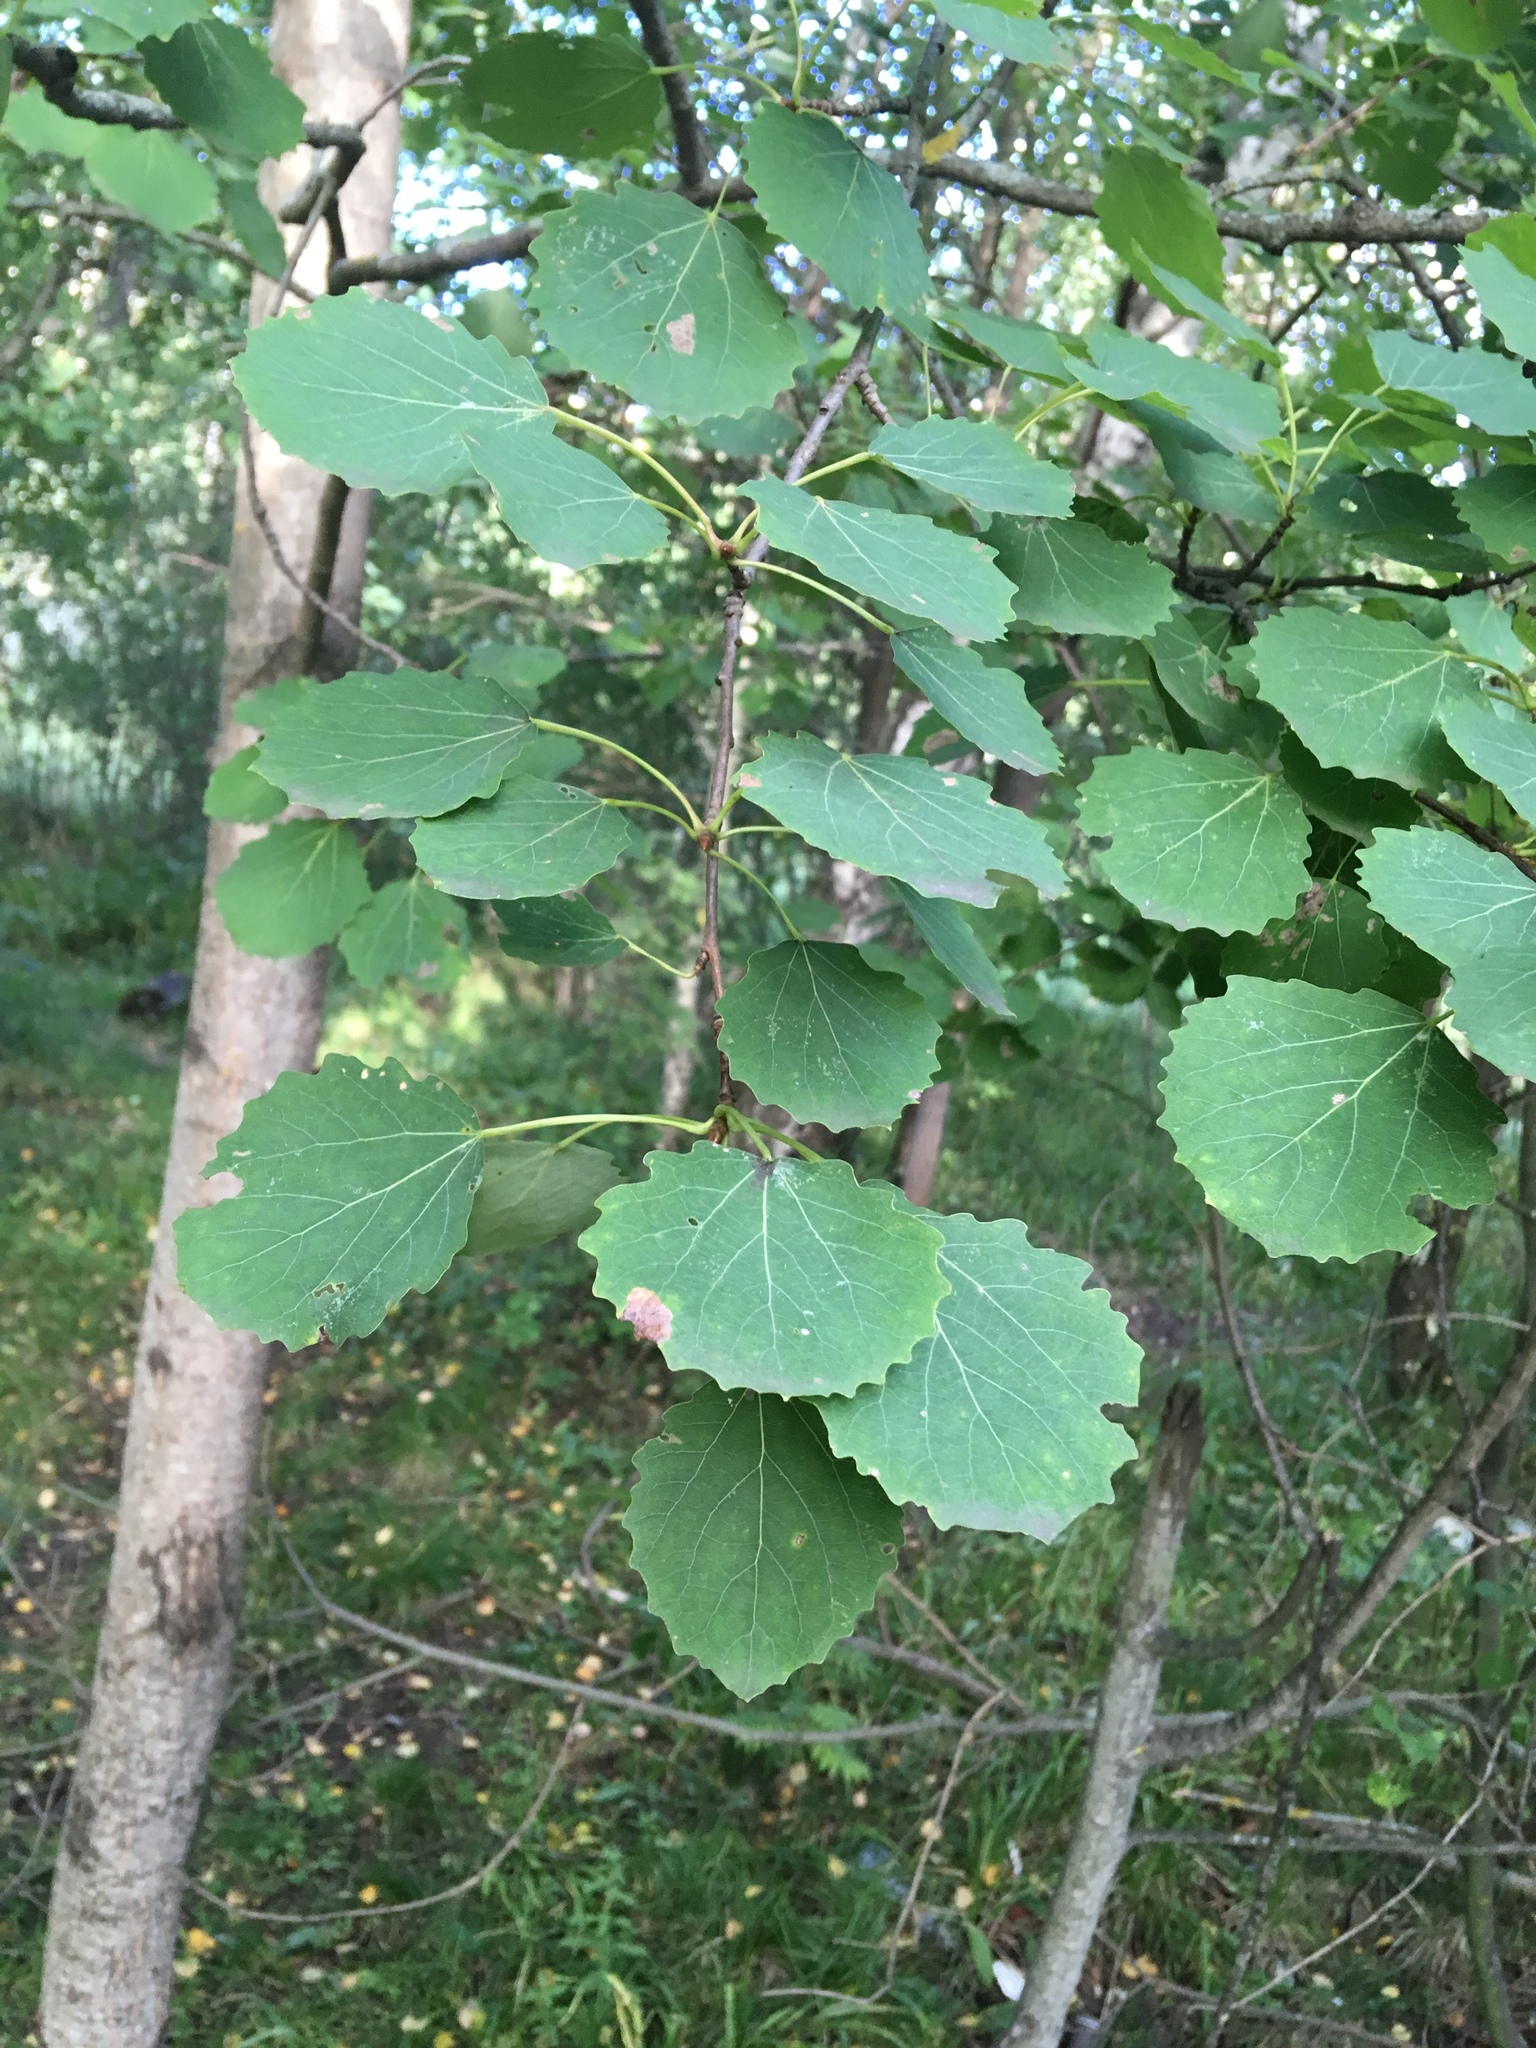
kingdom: Plantae
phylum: Tracheophyta
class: Magnoliopsida
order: Malpighiales
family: Salicaceae
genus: Populus
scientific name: Populus tremula
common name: European aspen
